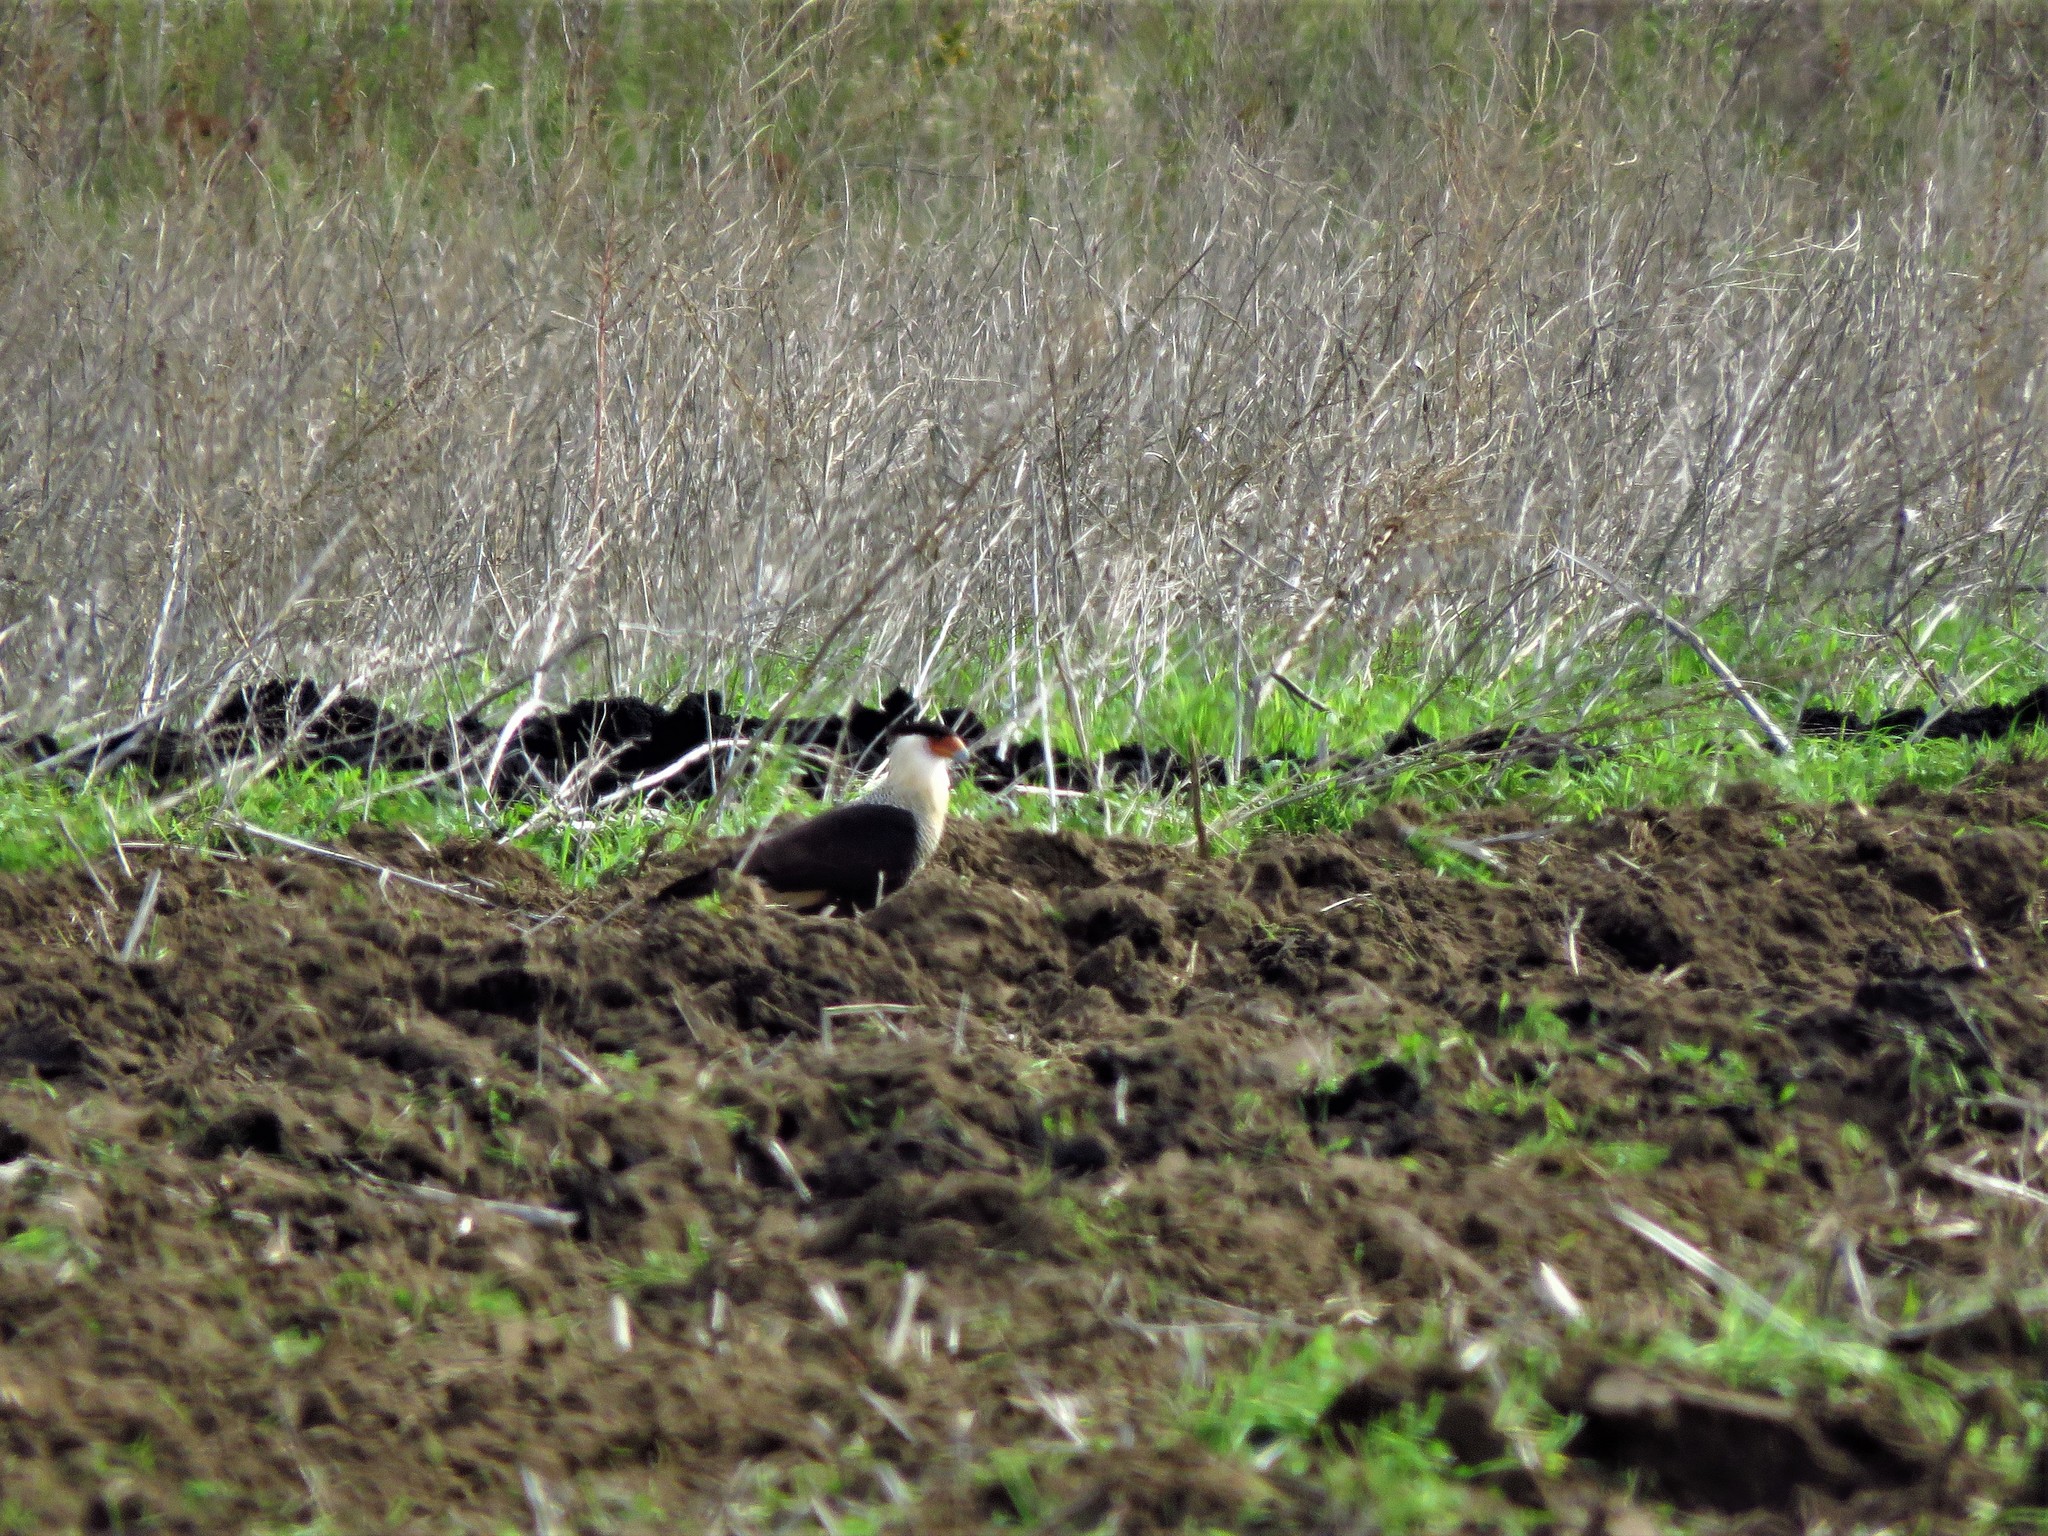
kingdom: Animalia
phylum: Chordata
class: Aves
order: Falconiformes
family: Falconidae
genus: Caracara
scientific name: Caracara plancus
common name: Southern caracara
